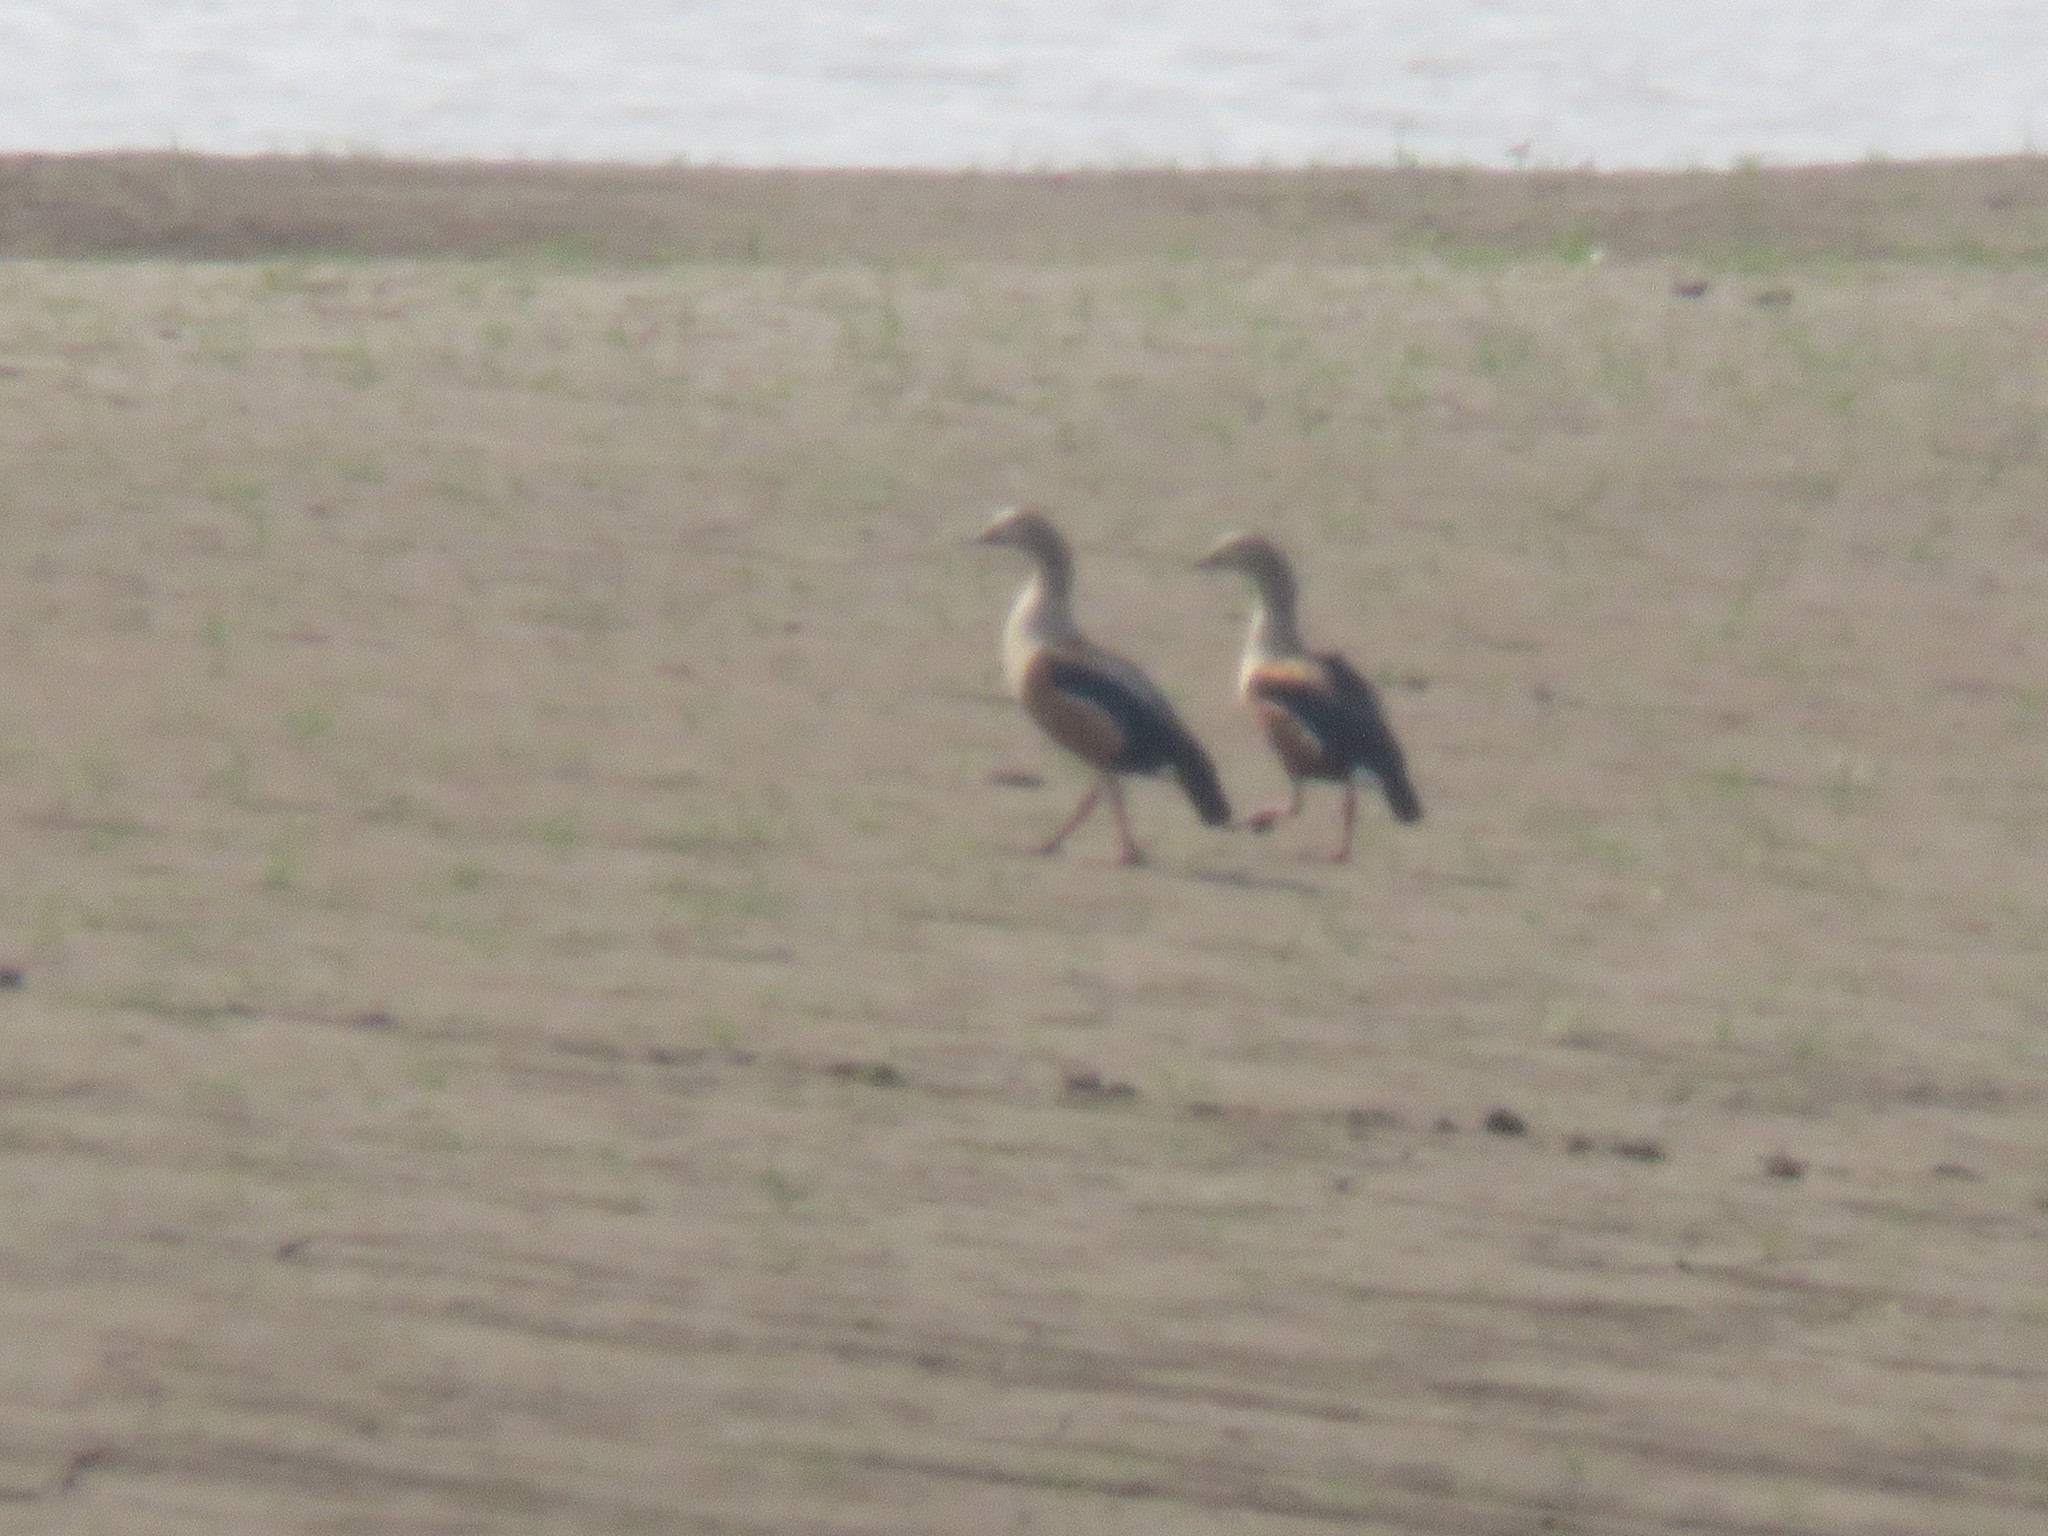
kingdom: Animalia
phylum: Chordata
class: Aves
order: Anseriformes
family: Anatidae
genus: Oressochen
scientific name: Oressochen jubatus
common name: Orinoco goose
